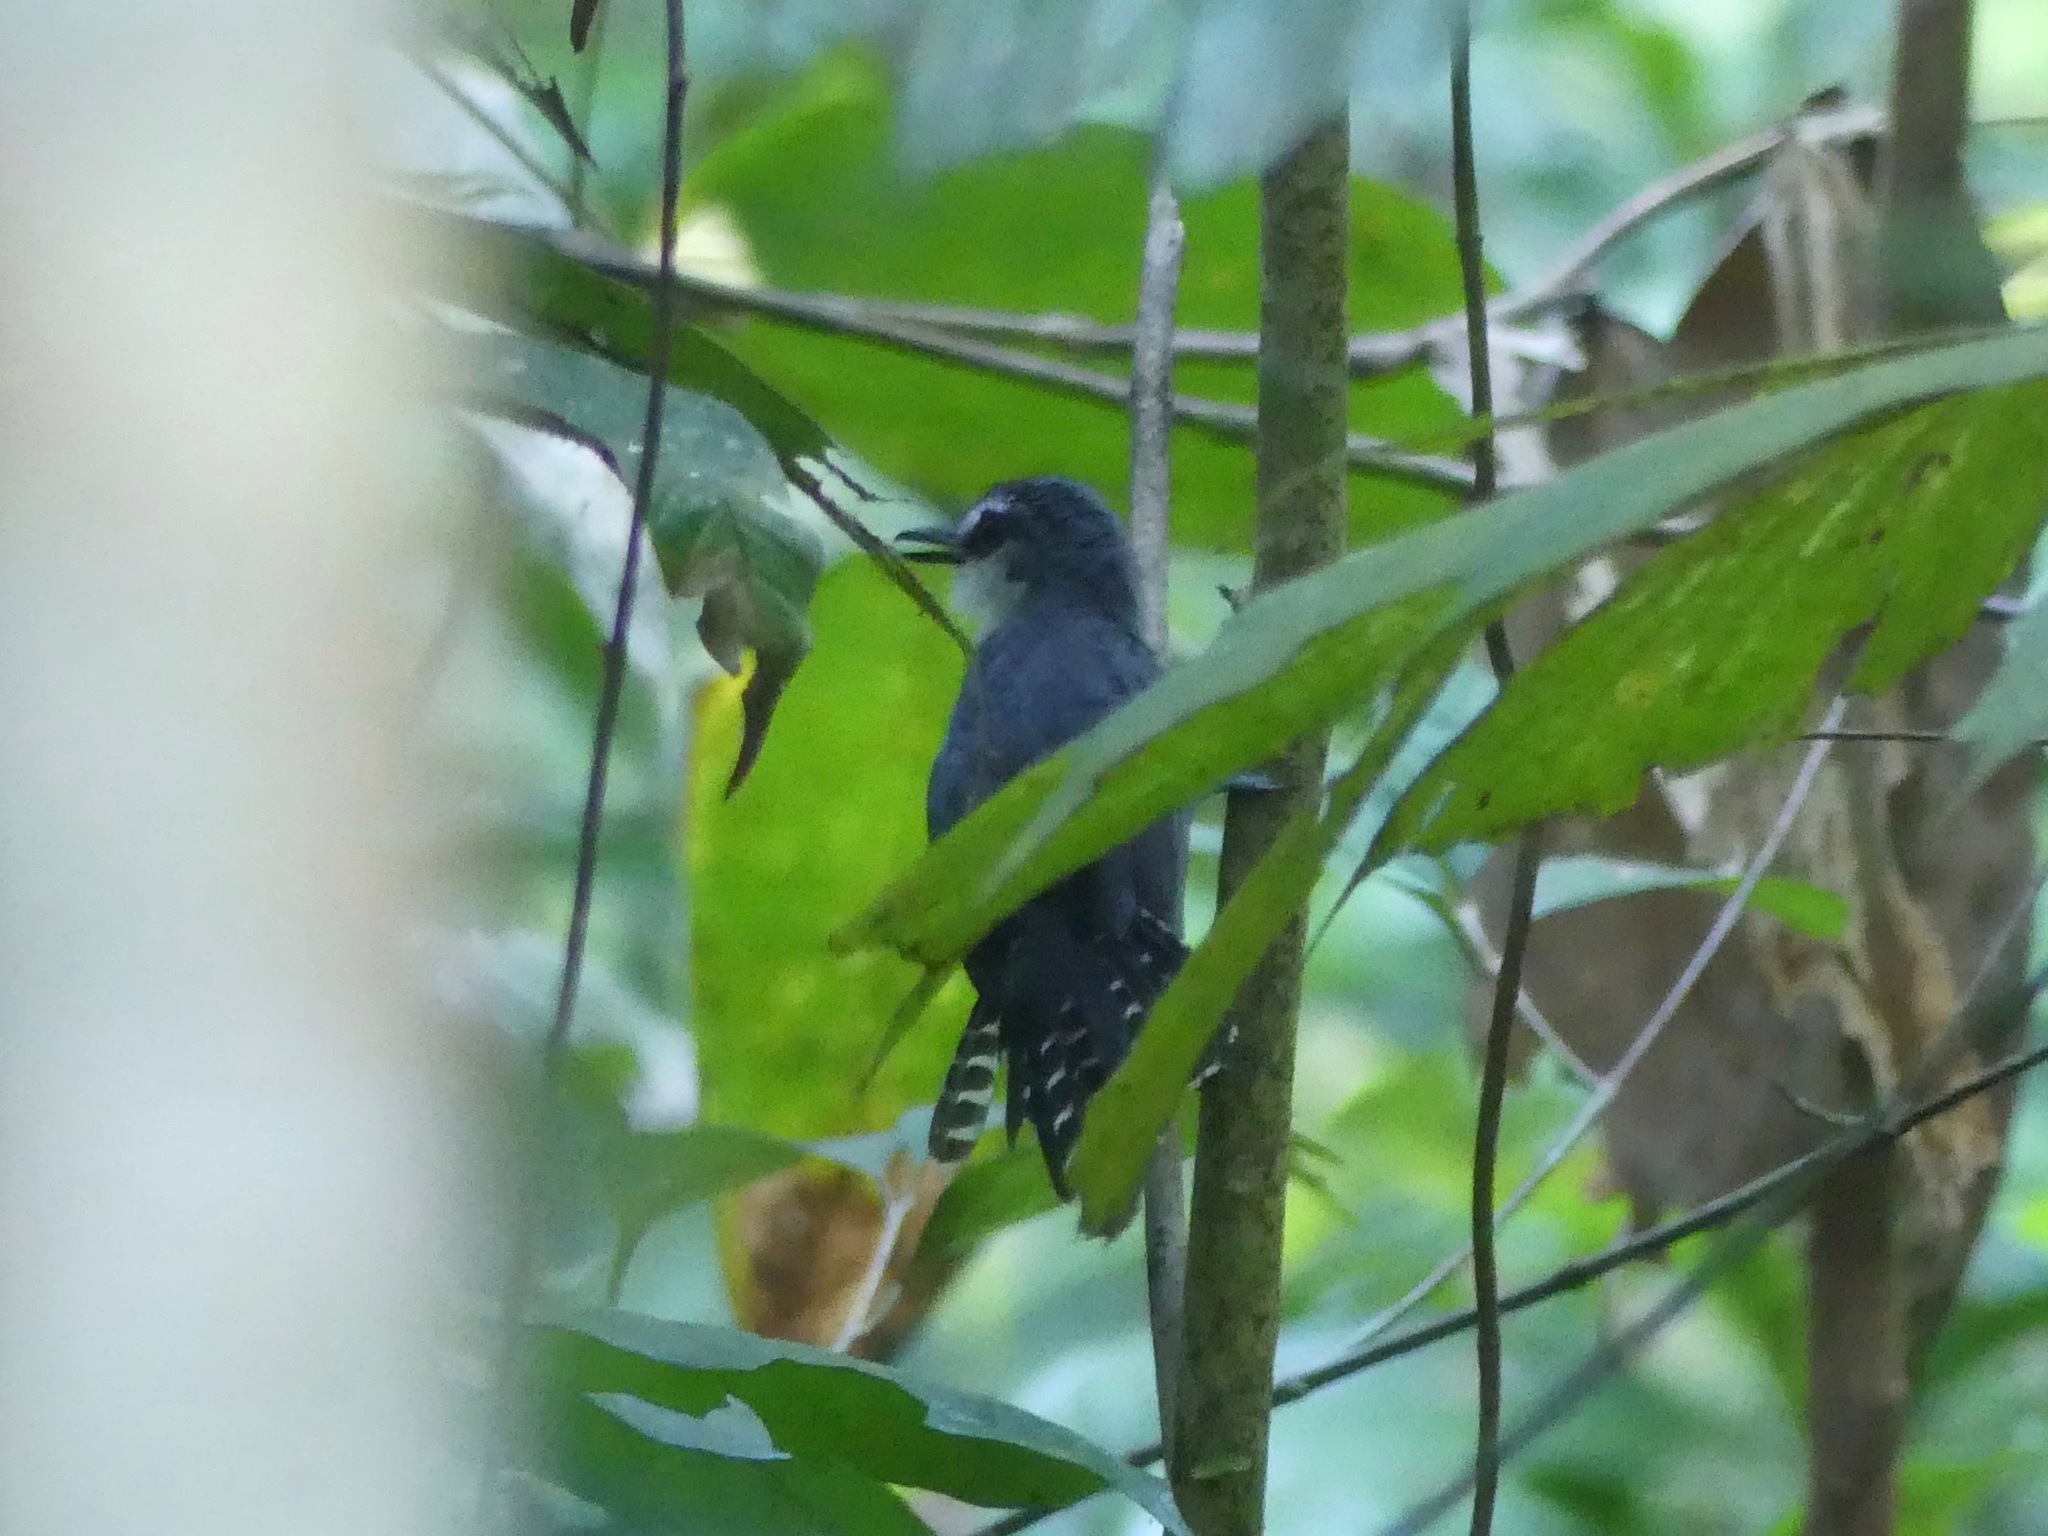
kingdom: Animalia
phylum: Chordata
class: Aves
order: Passeriformes
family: Thamnophilidae
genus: Gymnopithys
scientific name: Gymnopithys salvini
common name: White-throated antbird
